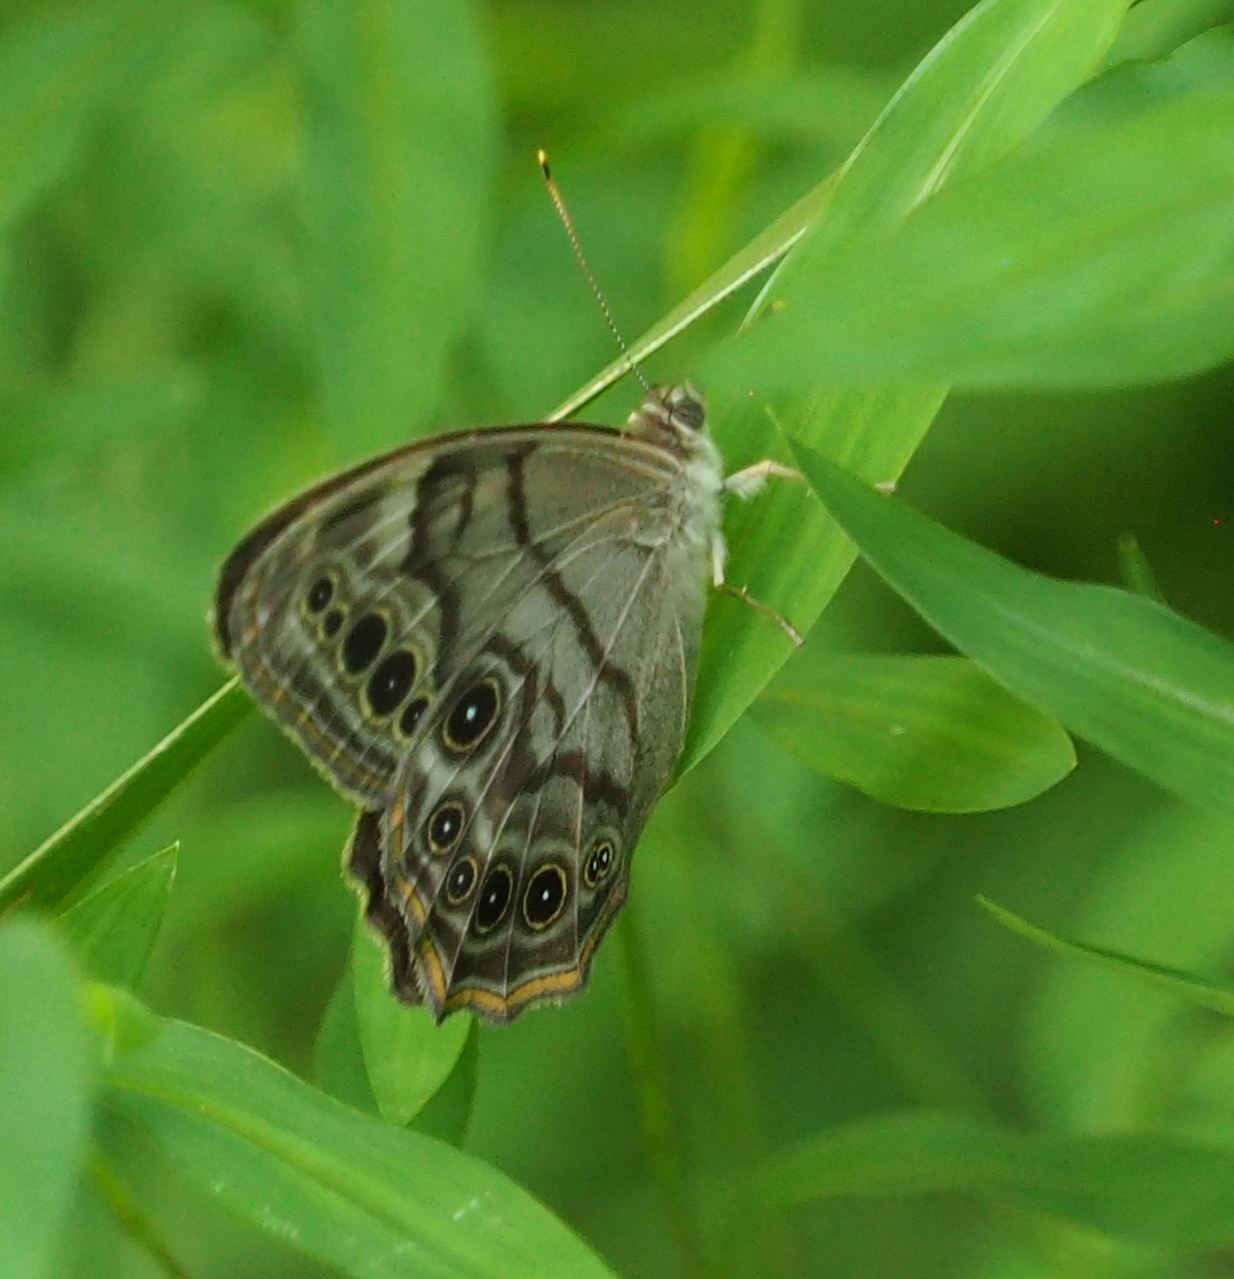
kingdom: Animalia
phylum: Arthropoda
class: Insecta
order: Lepidoptera
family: Nymphalidae
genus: Lethe
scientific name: Lethe anthedon
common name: Northern pearly-eye
